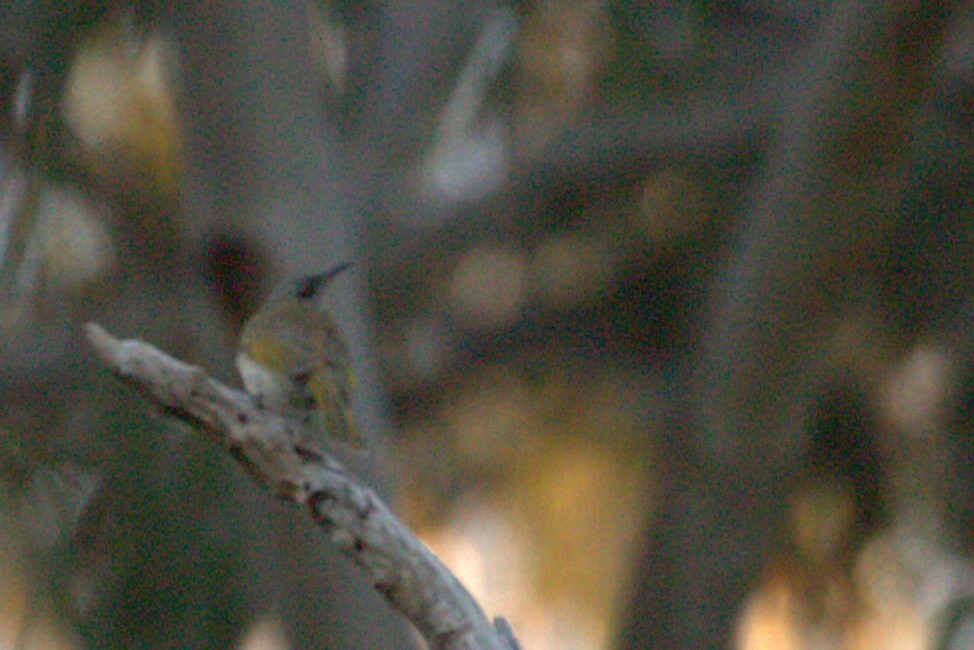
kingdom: Animalia
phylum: Chordata
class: Aves
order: Passeriformes
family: Meliphagidae
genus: Lichmera
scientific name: Lichmera indistincta
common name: Brown honeyeater
